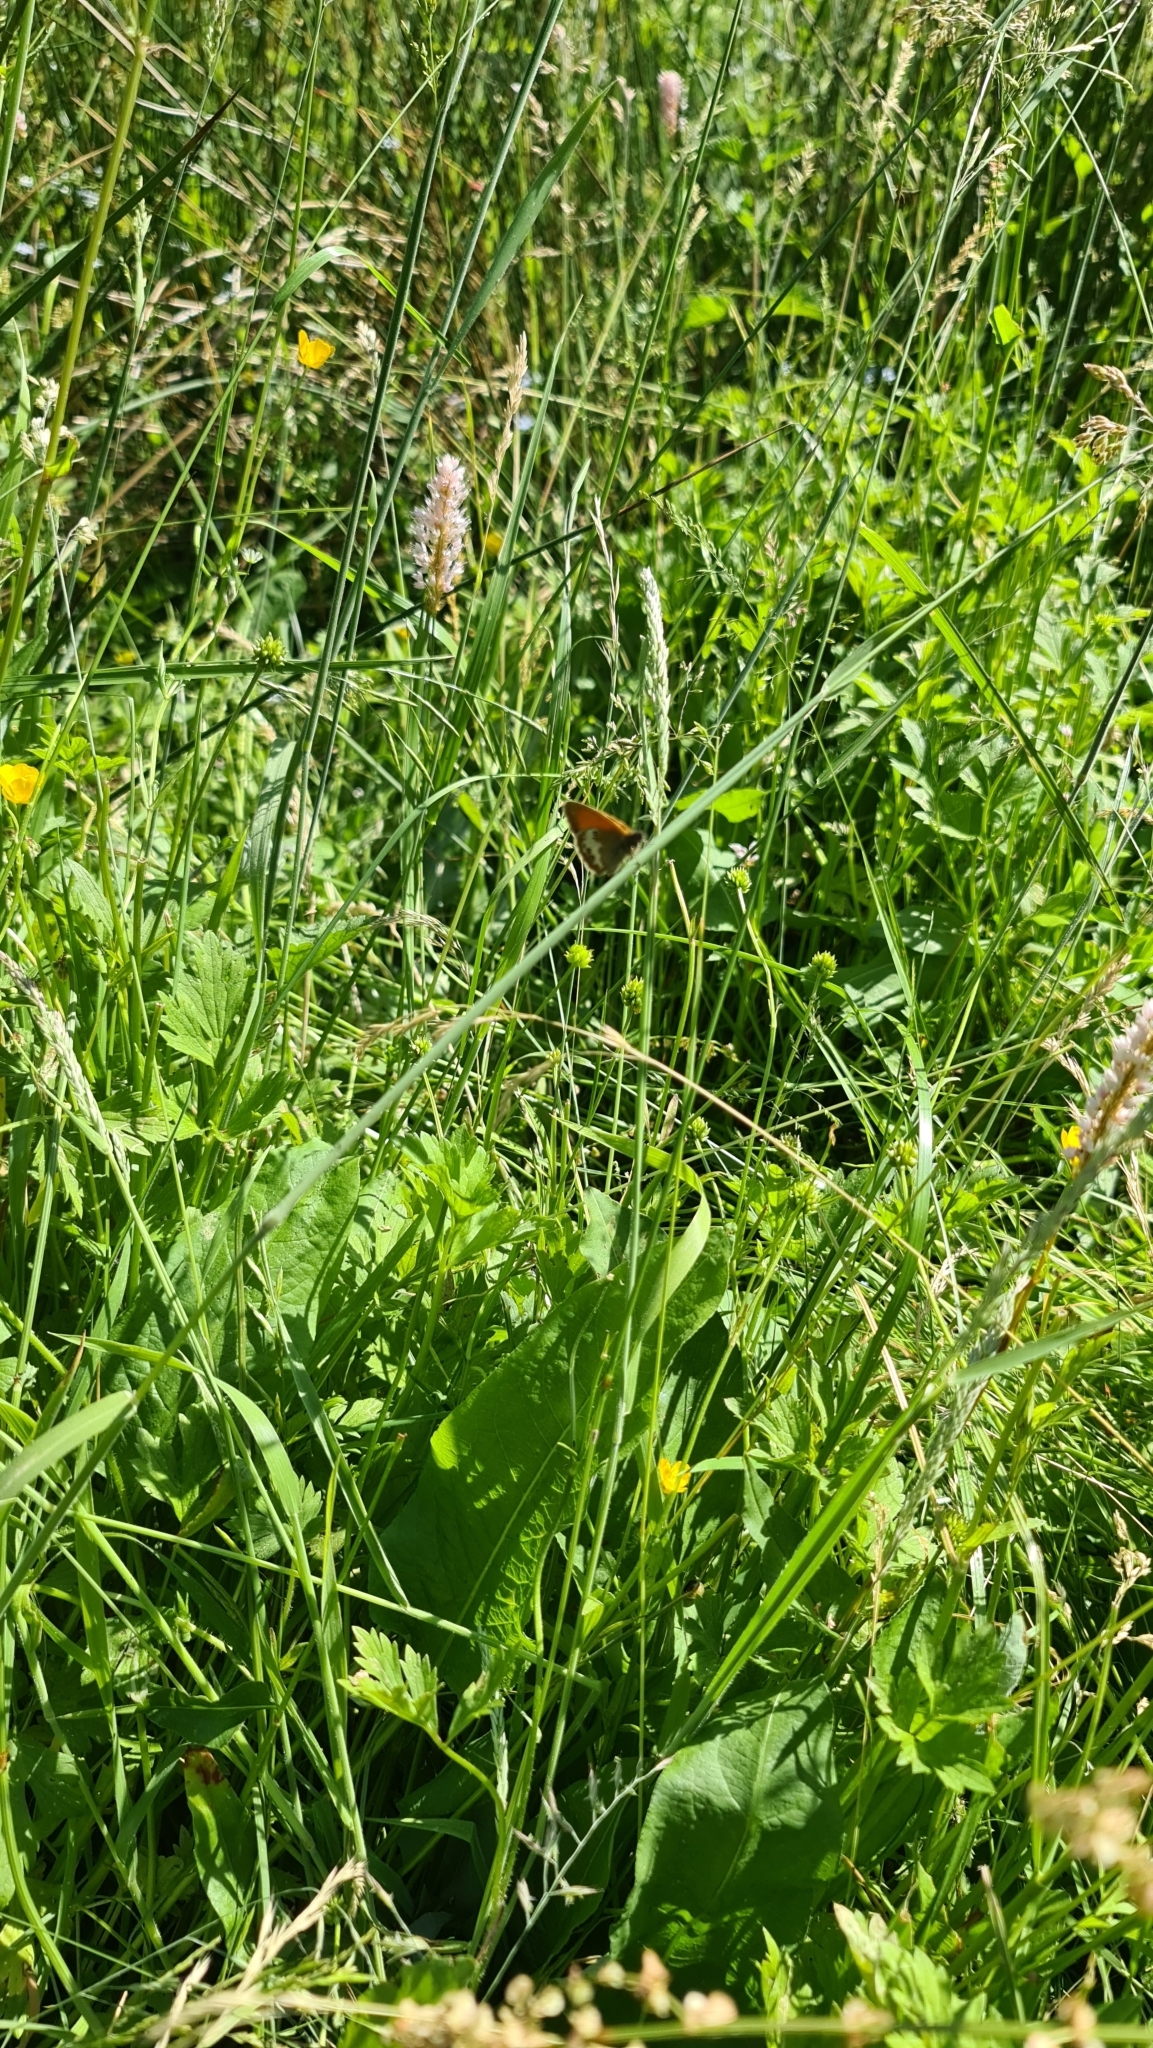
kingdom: Animalia
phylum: Arthropoda
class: Insecta
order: Lepidoptera
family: Nymphalidae
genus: Coenonympha
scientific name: Coenonympha arcania
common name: Pearly heath
